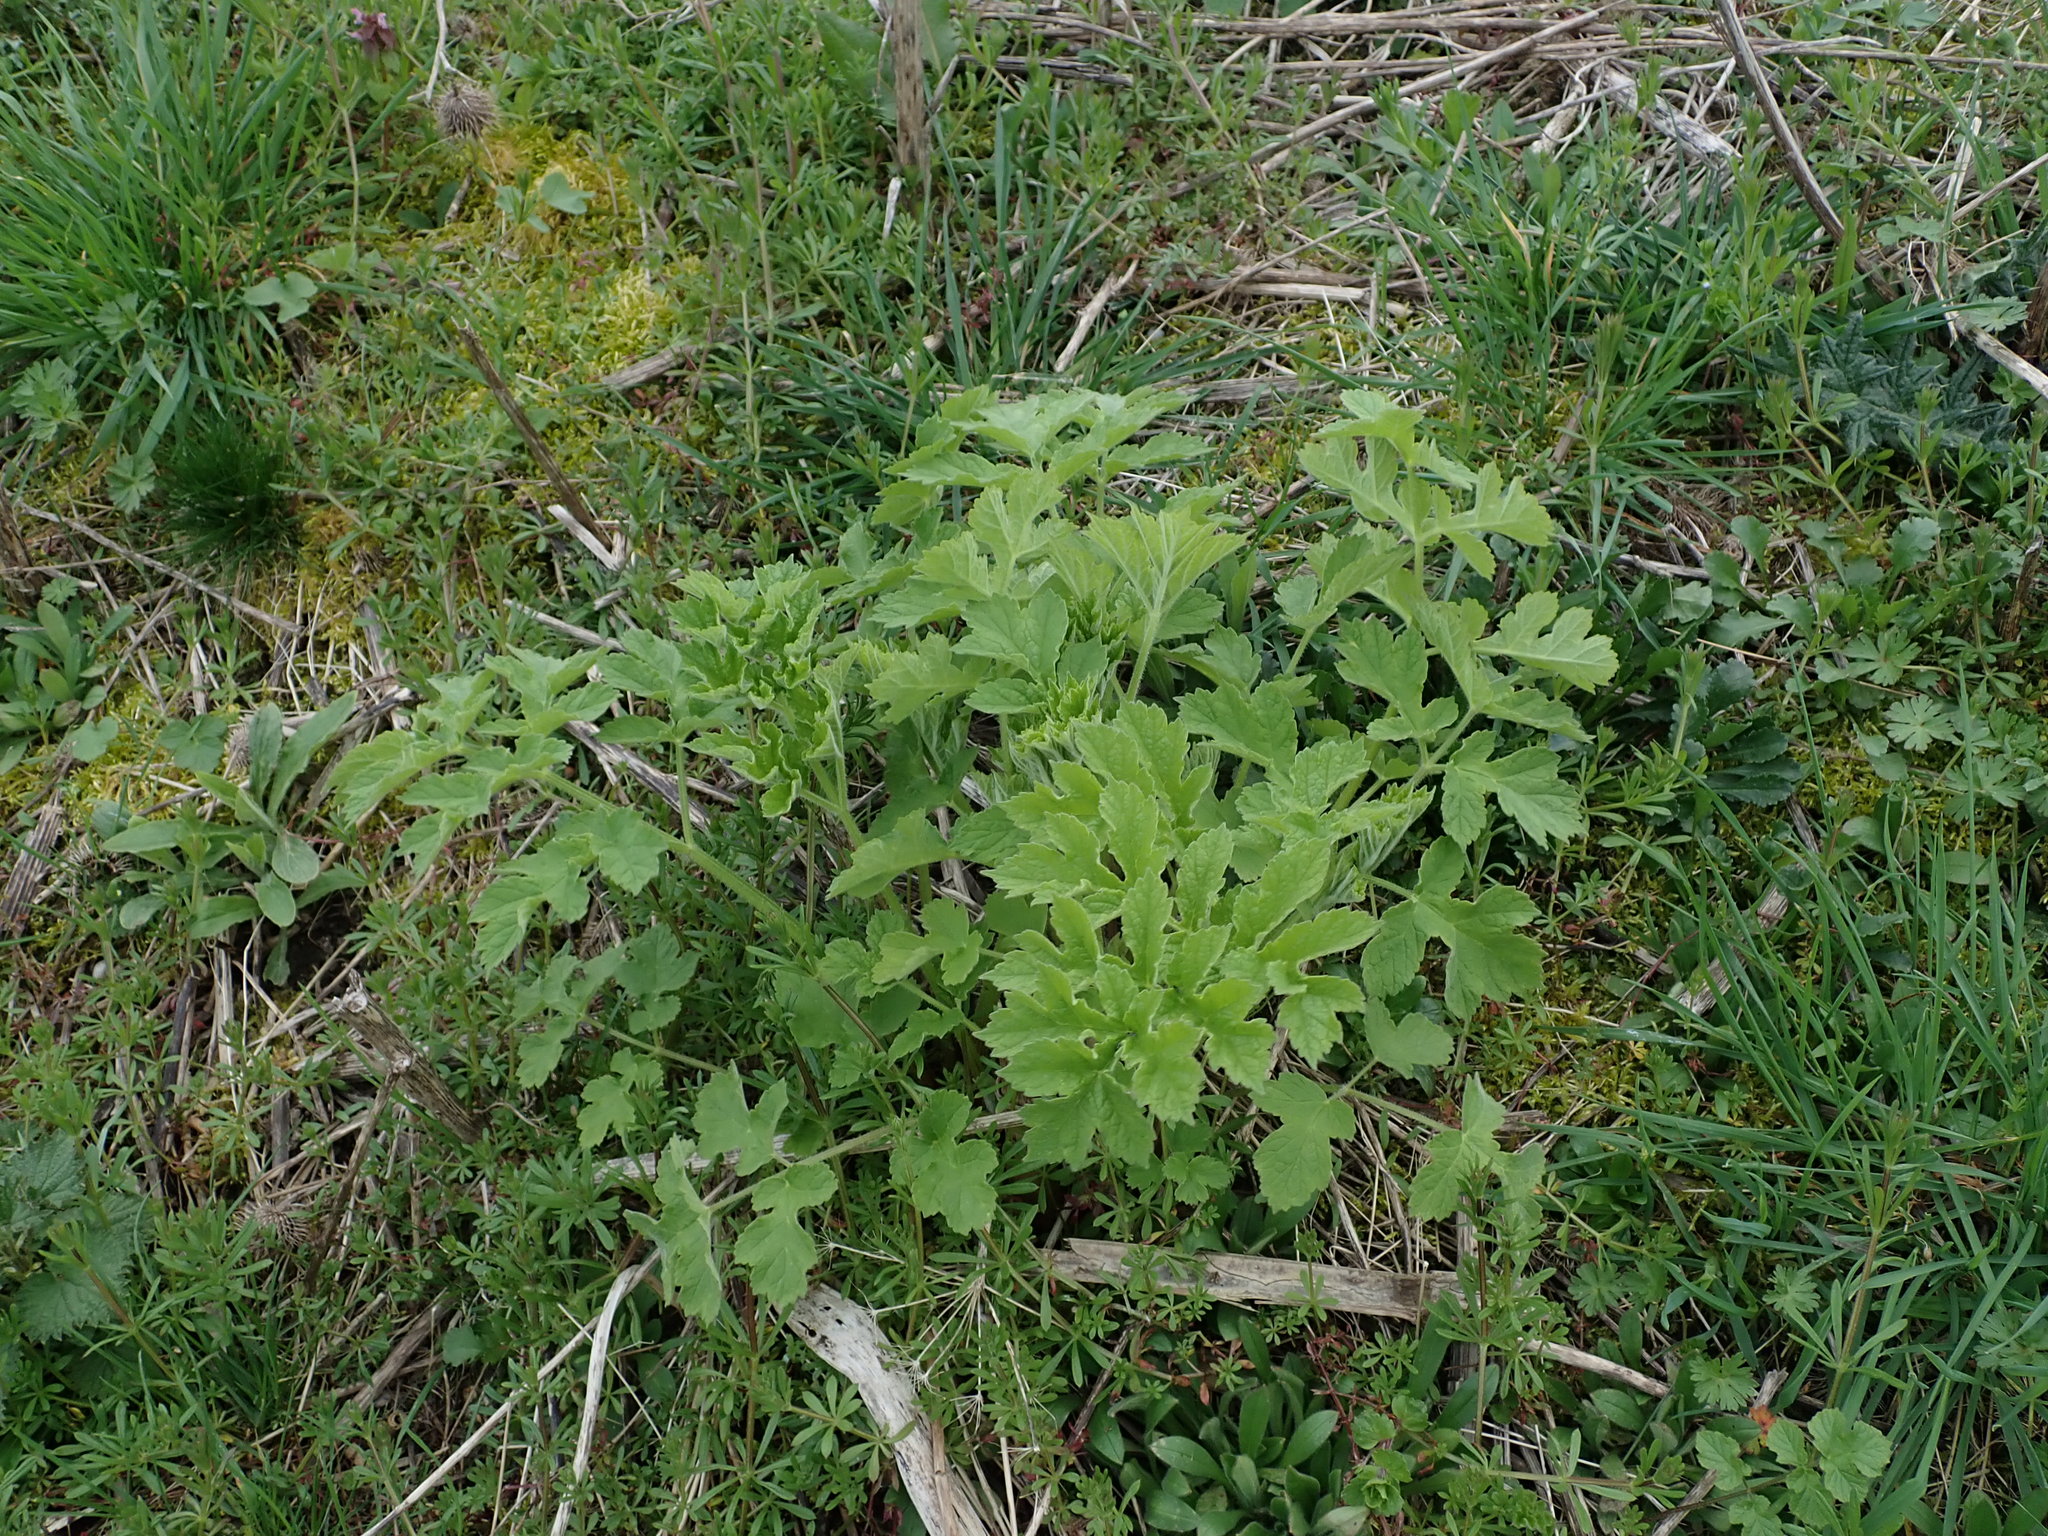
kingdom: Plantae
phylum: Tracheophyta
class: Magnoliopsida
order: Apiales
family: Apiaceae
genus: Heracleum
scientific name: Heracleum sphondylium
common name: Hogweed
